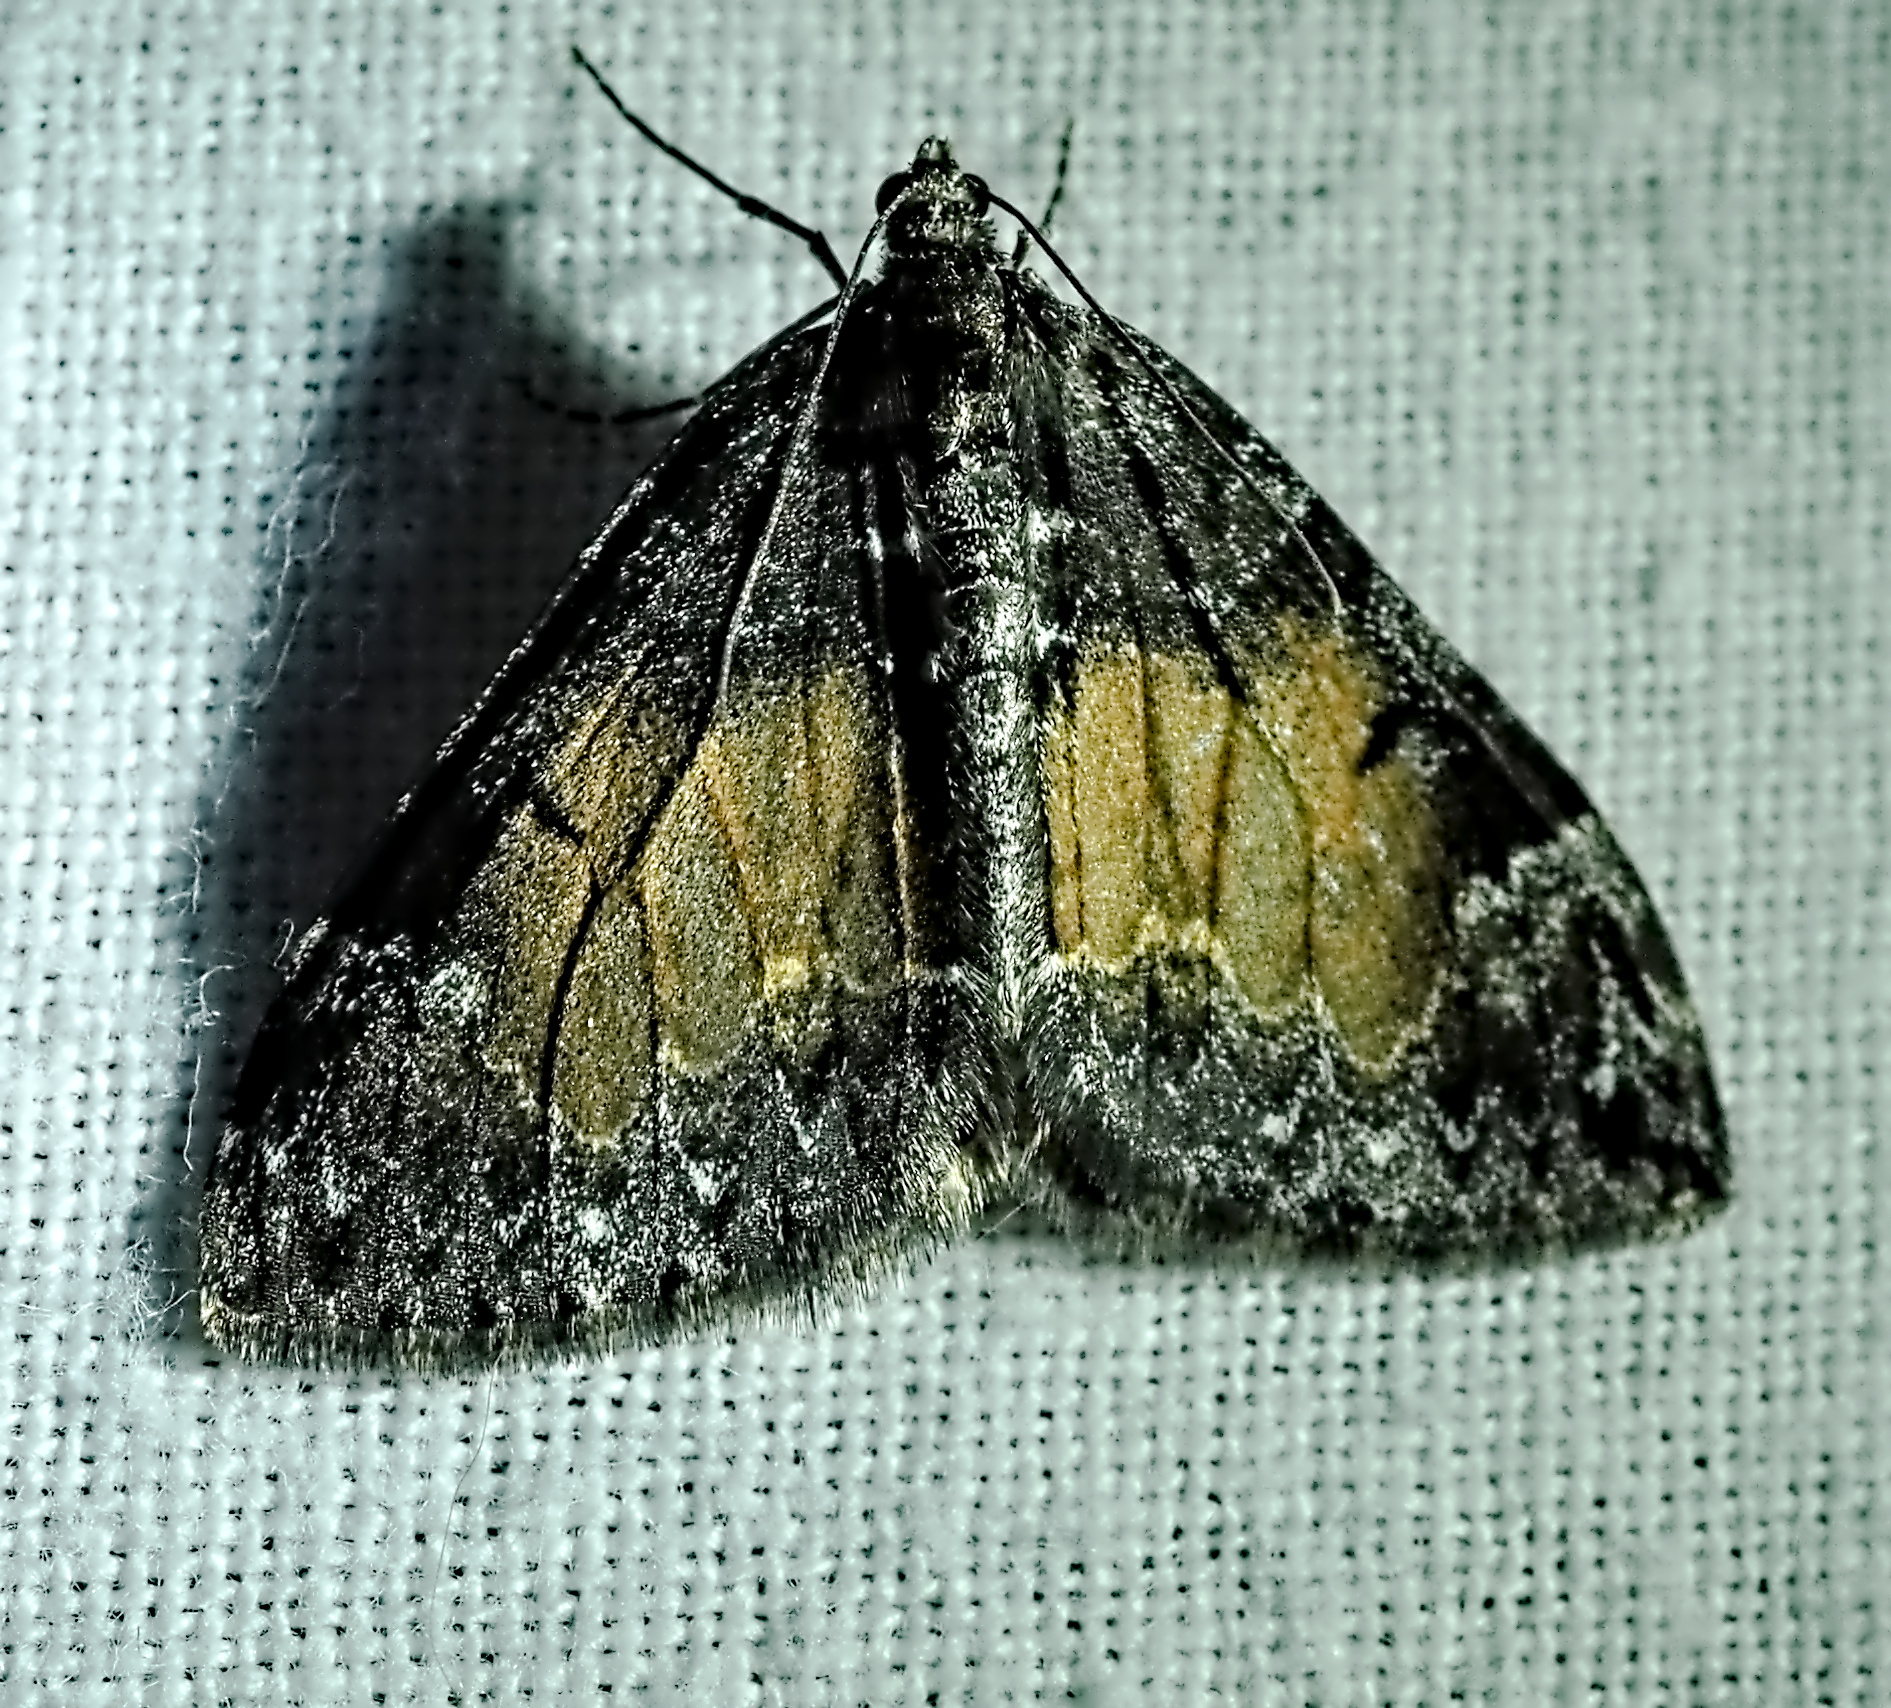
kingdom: Animalia
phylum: Arthropoda
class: Insecta
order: Lepidoptera
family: Geometridae
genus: Dysstroma
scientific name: Dysstroma truncata
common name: Common marbled carpet
